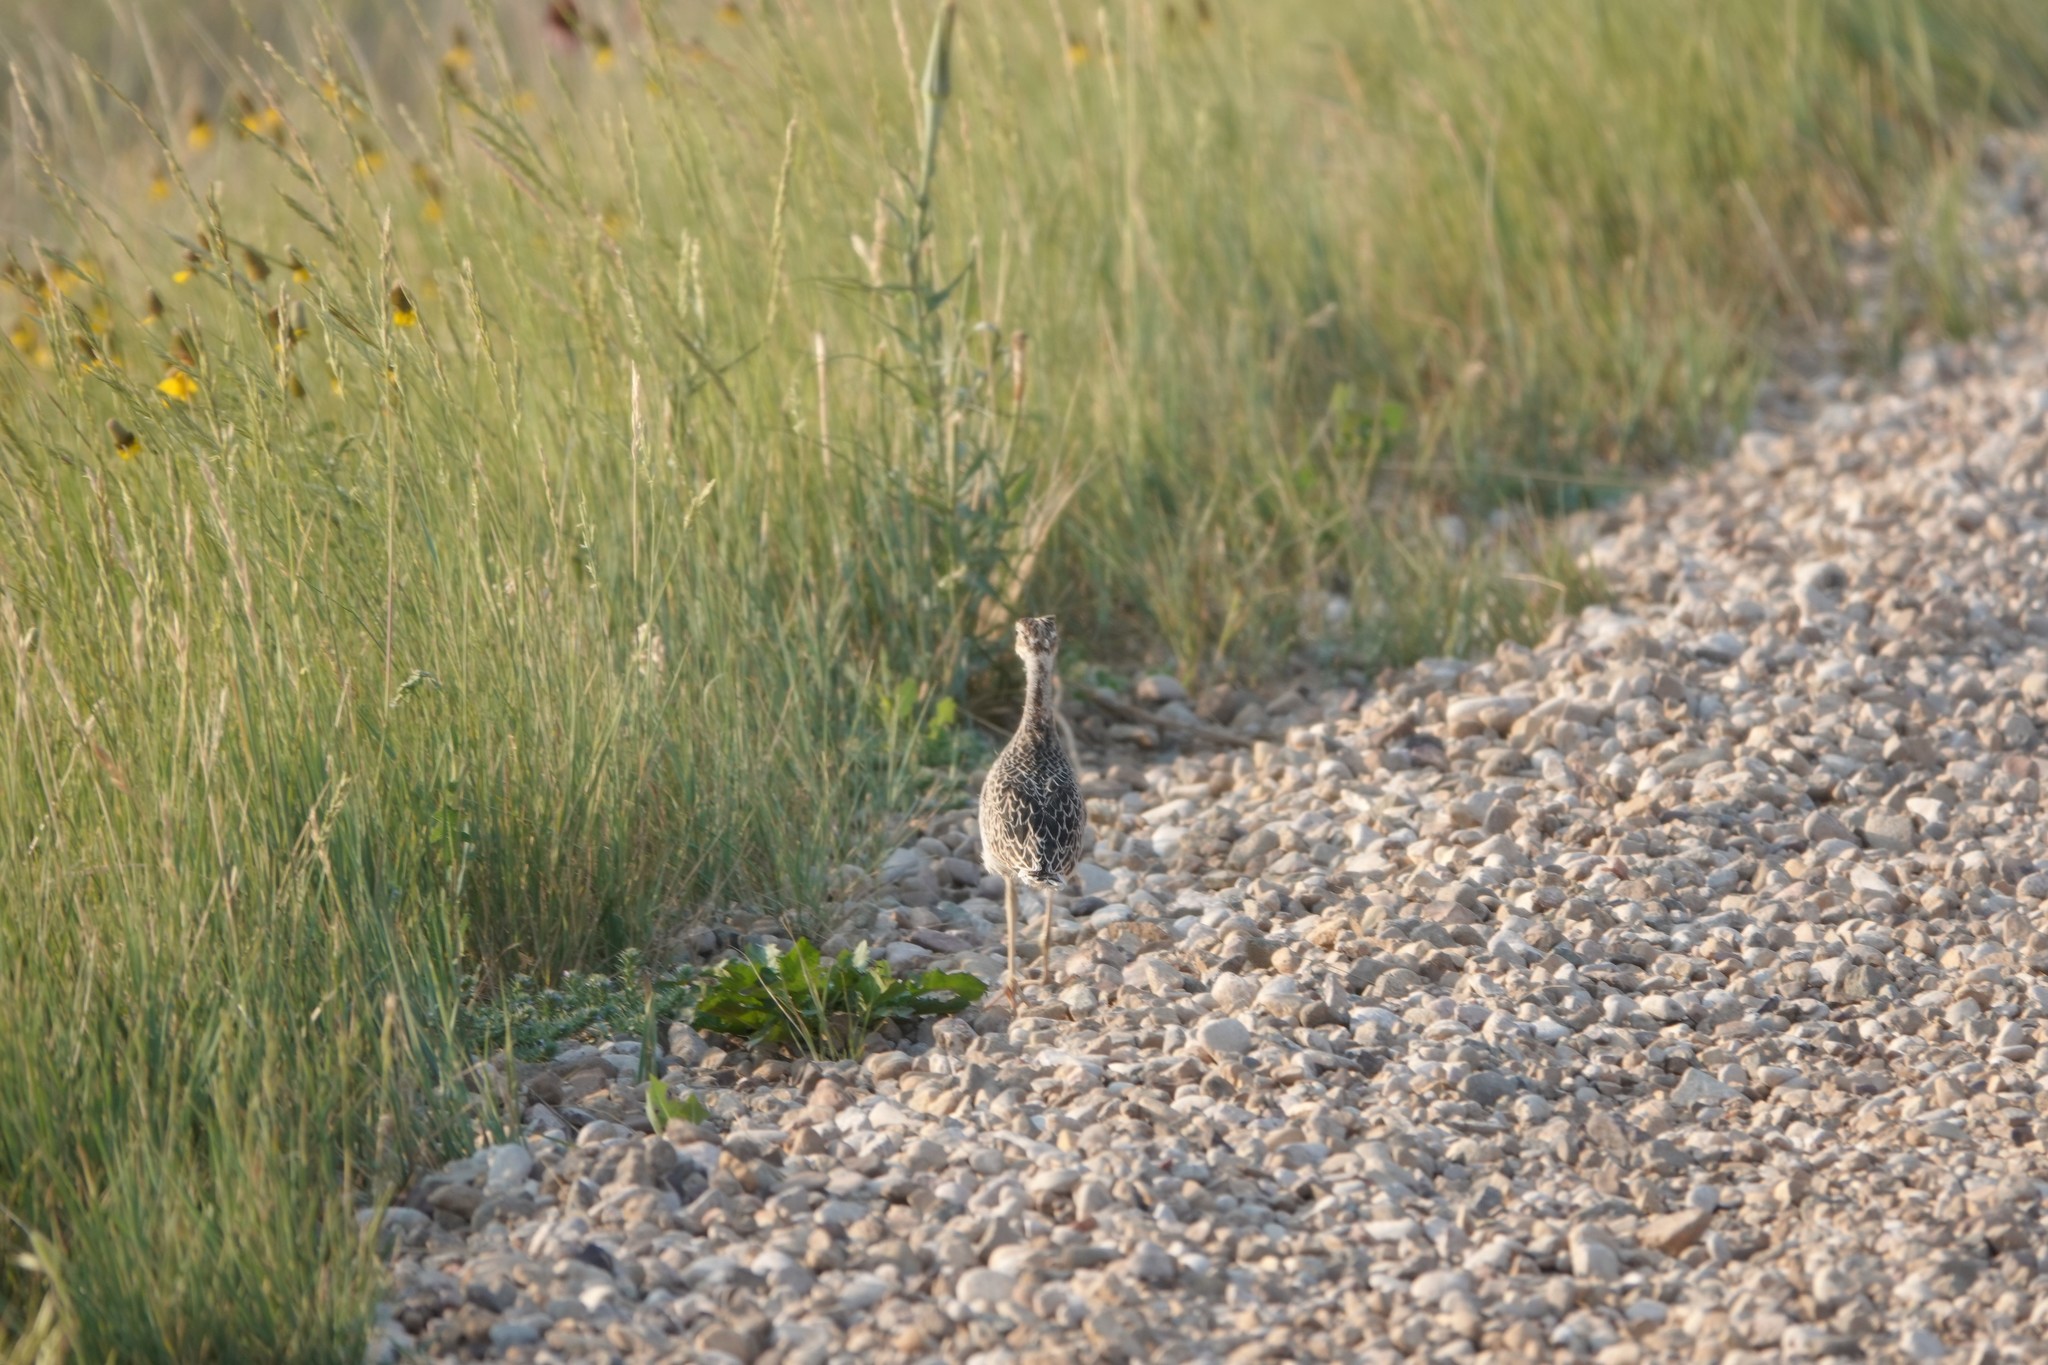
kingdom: Animalia
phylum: Chordata
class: Aves
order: Charadriiformes
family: Scolopacidae
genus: Bartramia
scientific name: Bartramia longicauda
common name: Upland sandpiper
